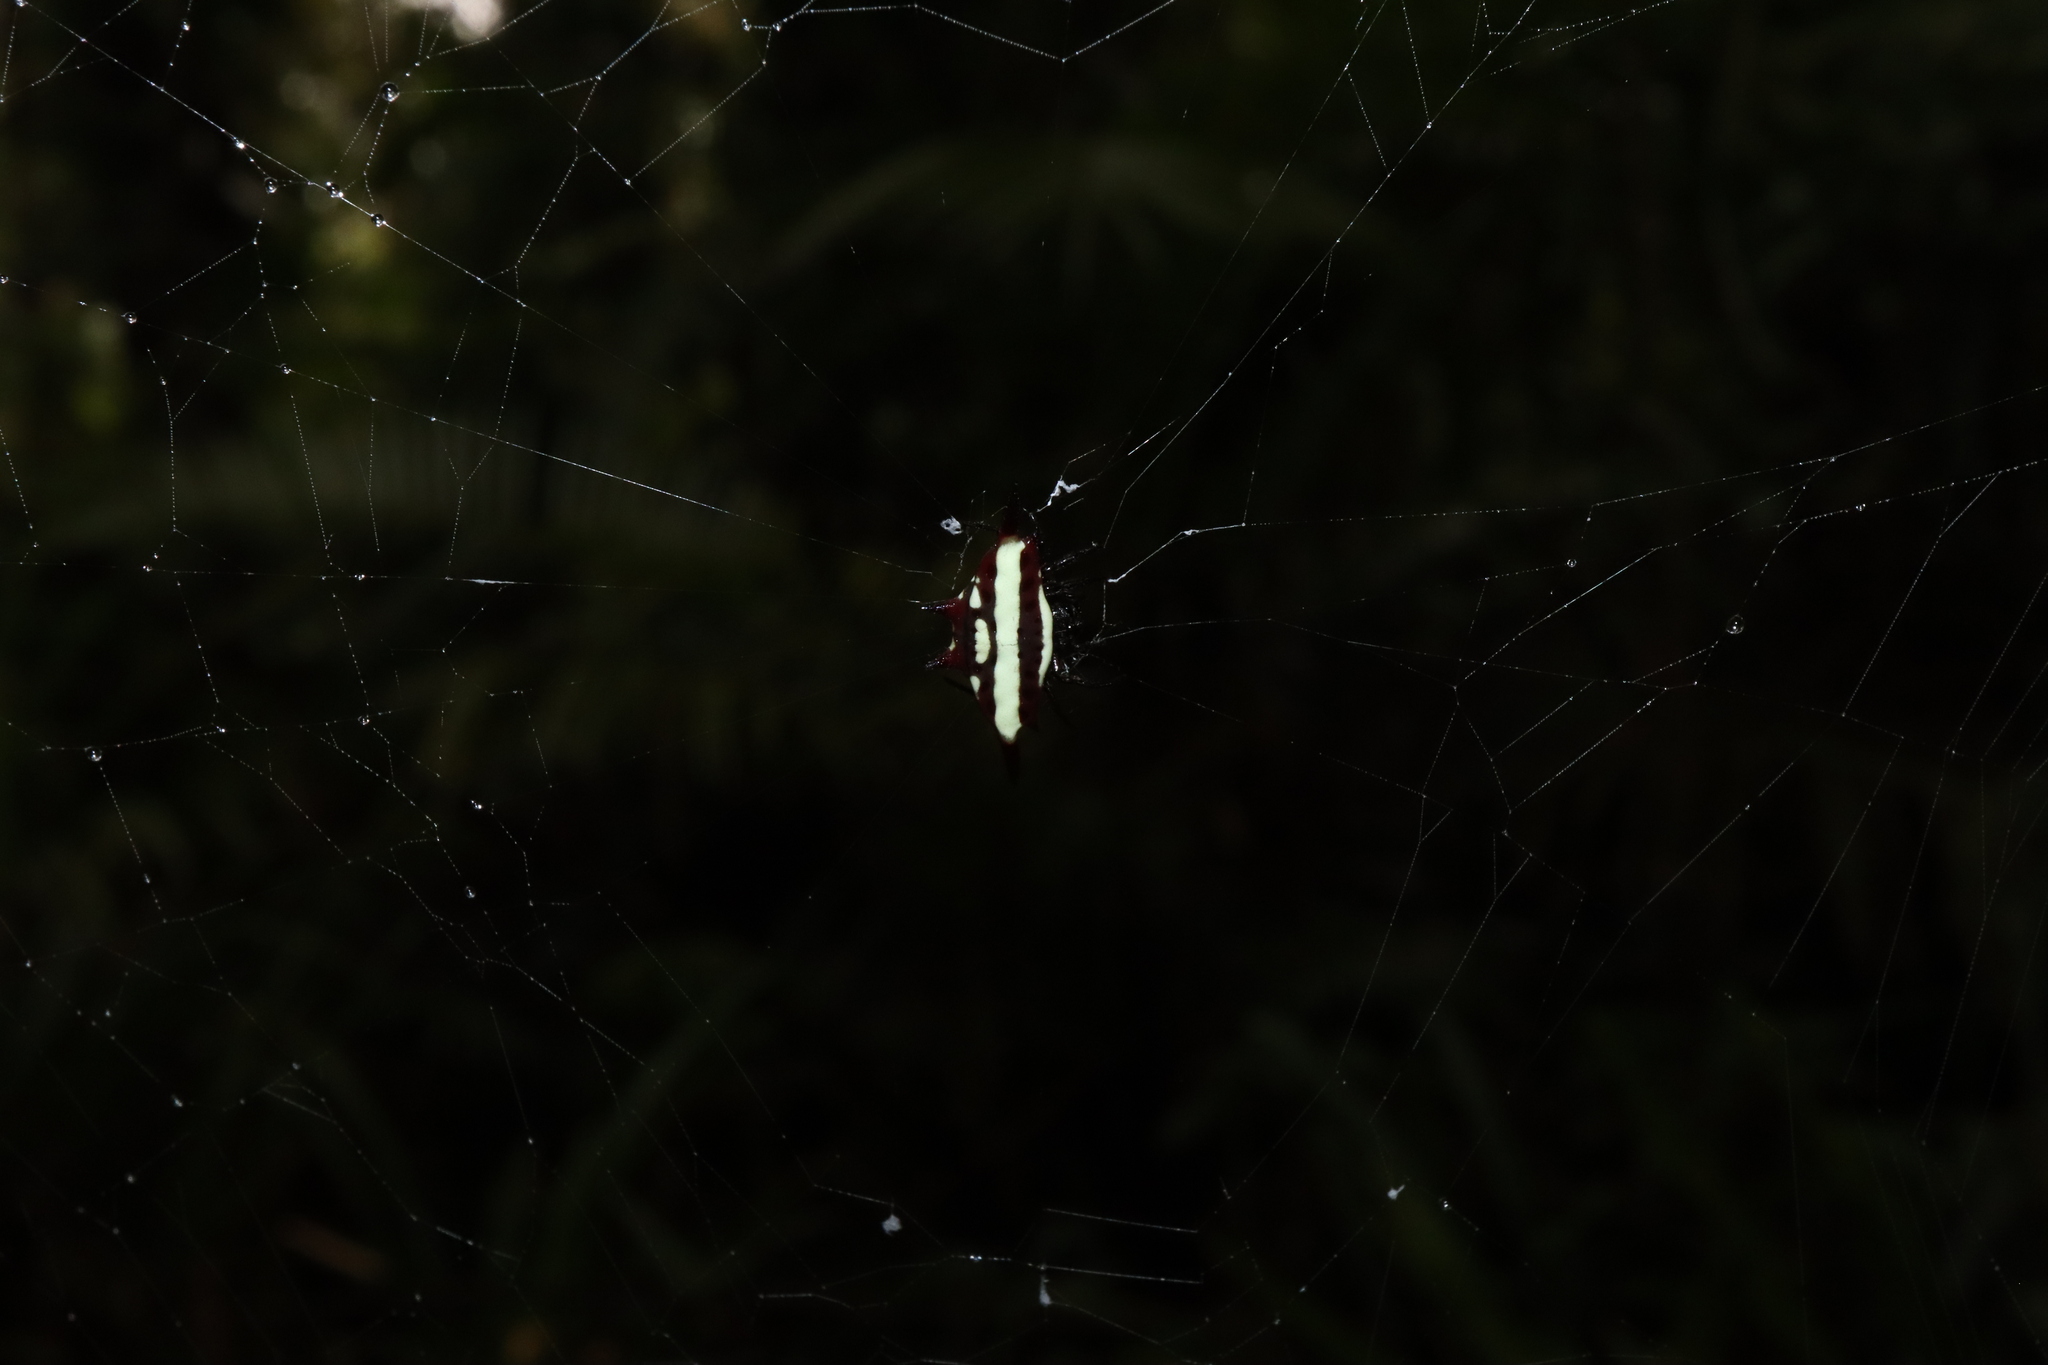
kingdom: Animalia
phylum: Arthropoda
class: Arachnida
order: Araneae
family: Araneidae
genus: Gasteracantha
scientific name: Gasteracantha fornicata
